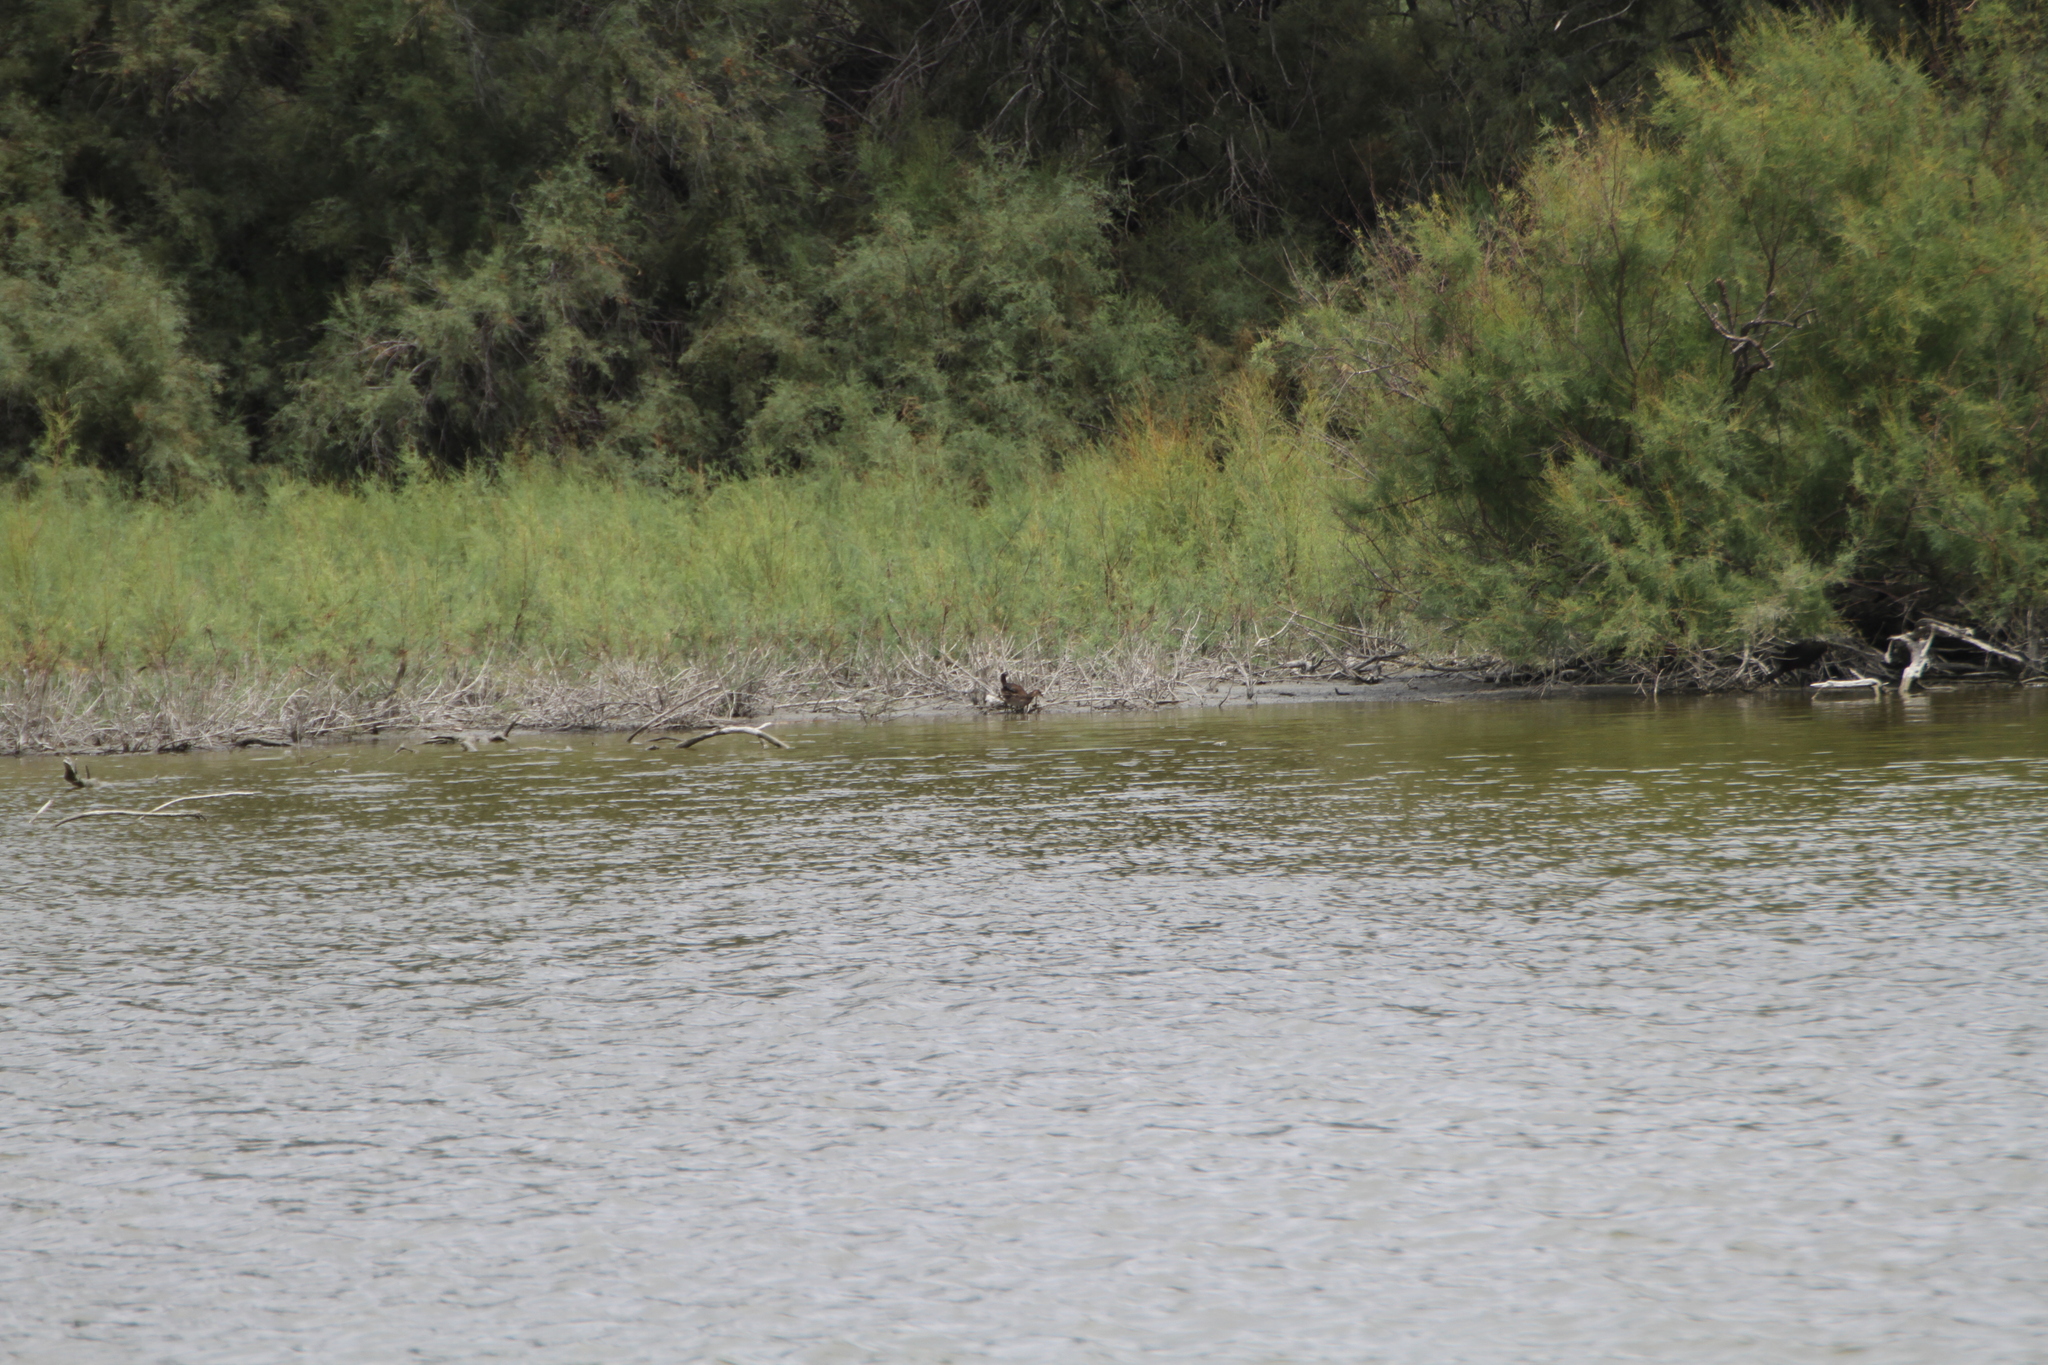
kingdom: Animalia
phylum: Chordata
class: Aves
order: Gruiformes
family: Rallidae
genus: Gallinula
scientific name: Gallinula chloropus
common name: Common moorhen
